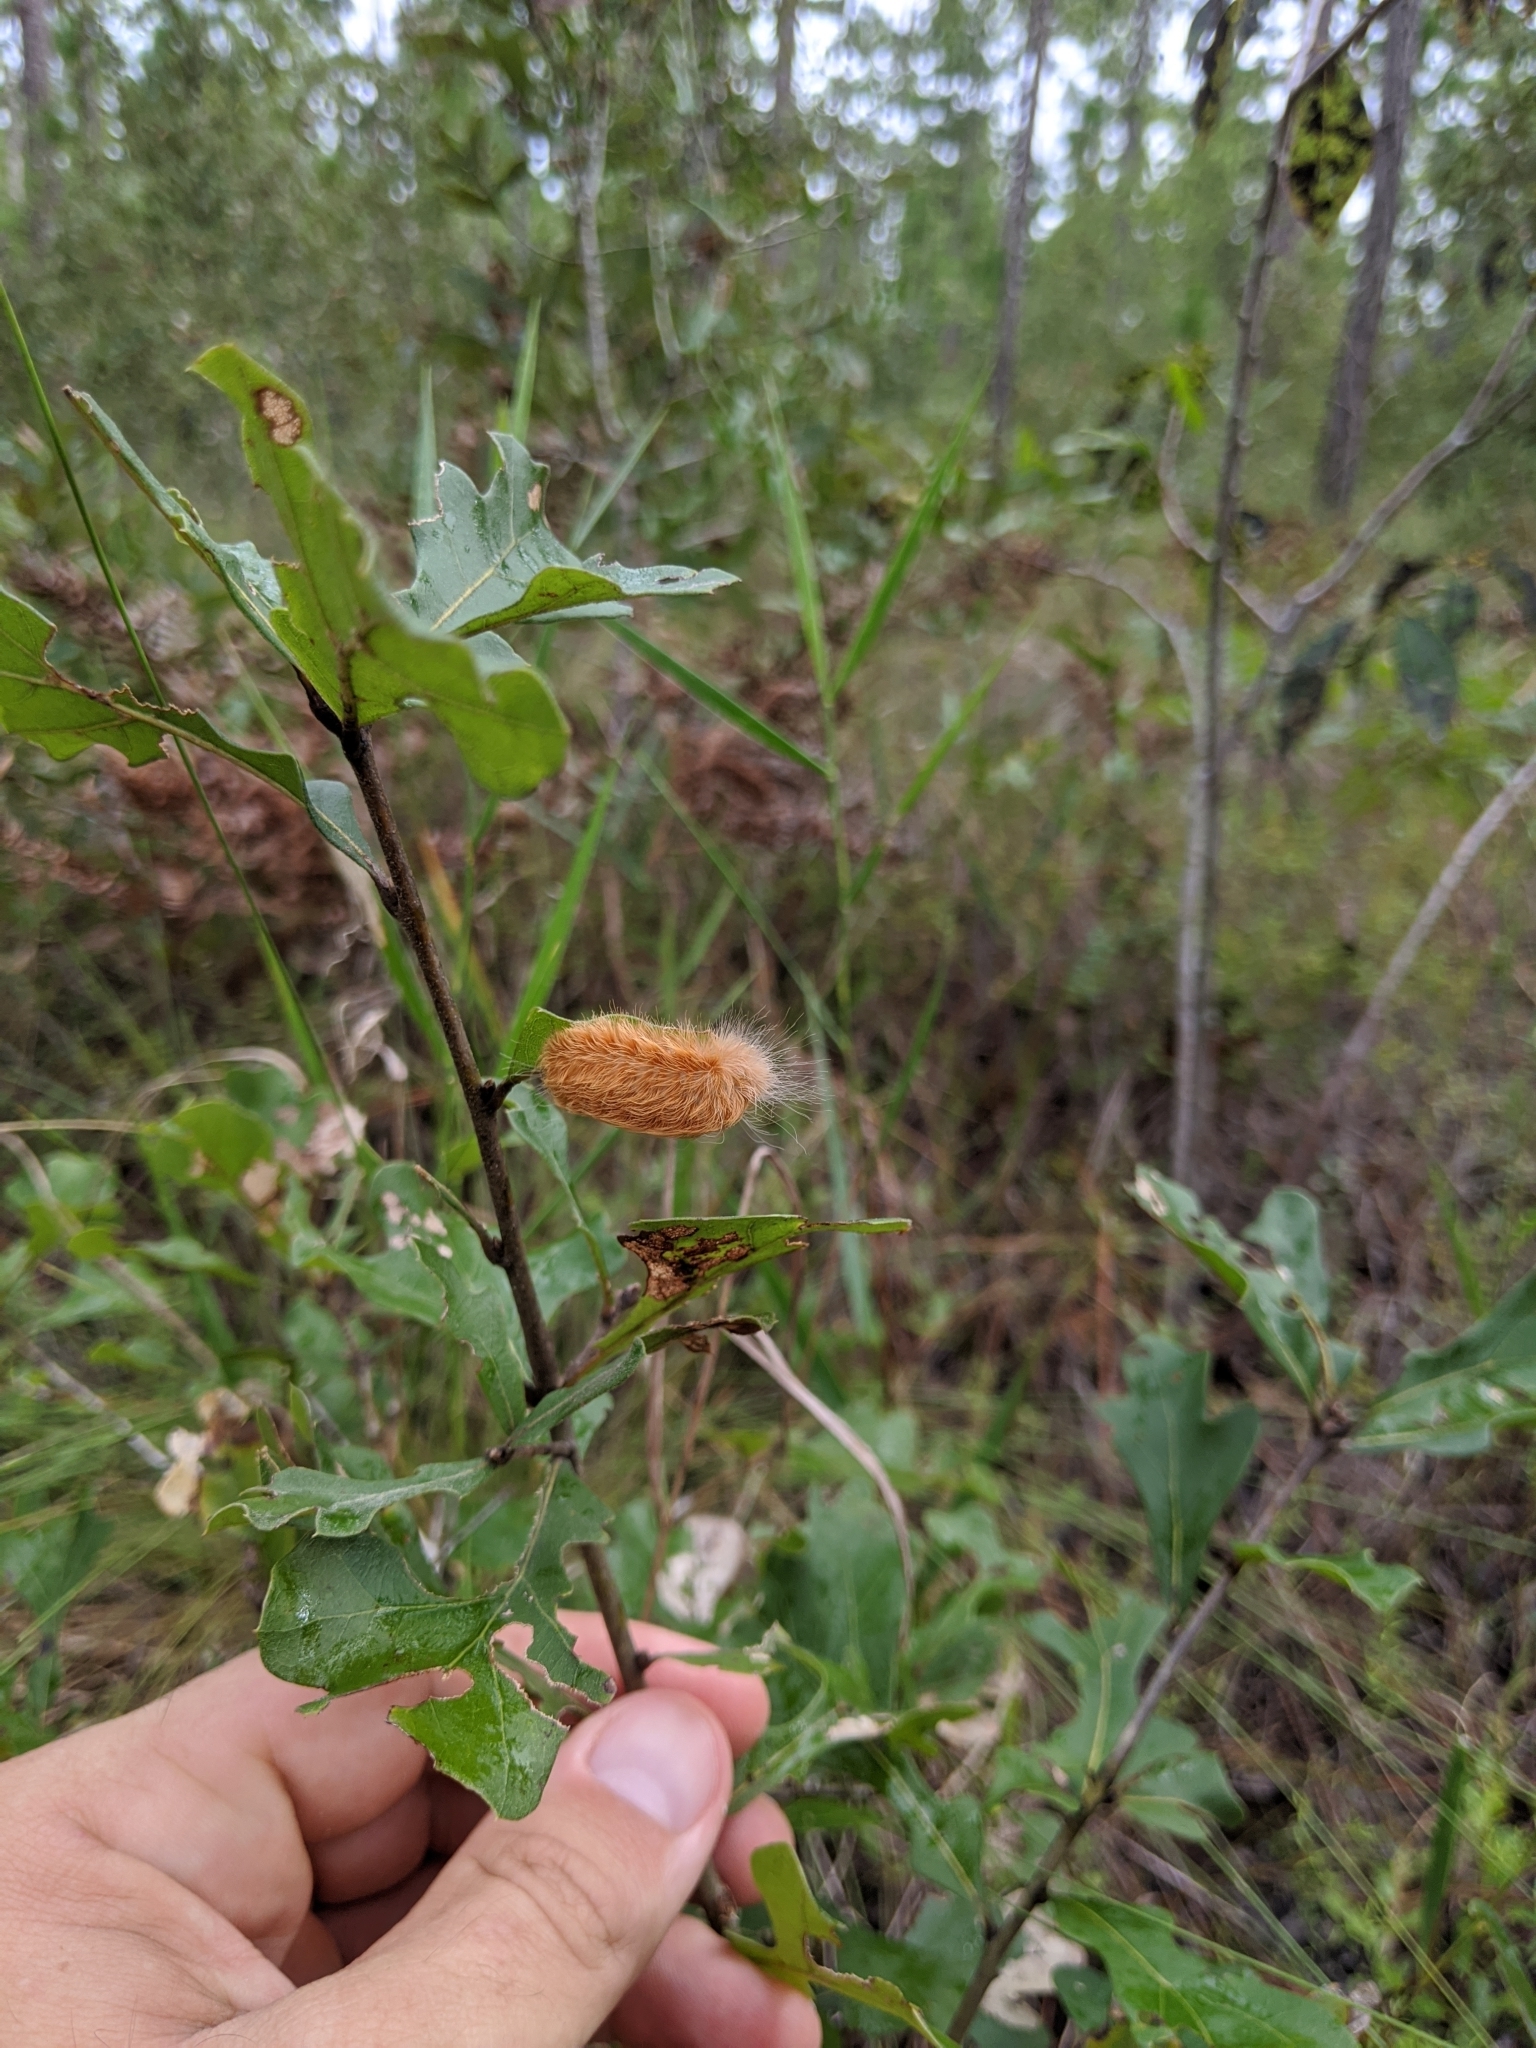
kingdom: Animalia
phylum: Arthropoda
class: Insecta
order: Lepidoptera
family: Megalopygidae
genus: Megalopyge
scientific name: Megalopyge crispata
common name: Black-waved flannel moth
